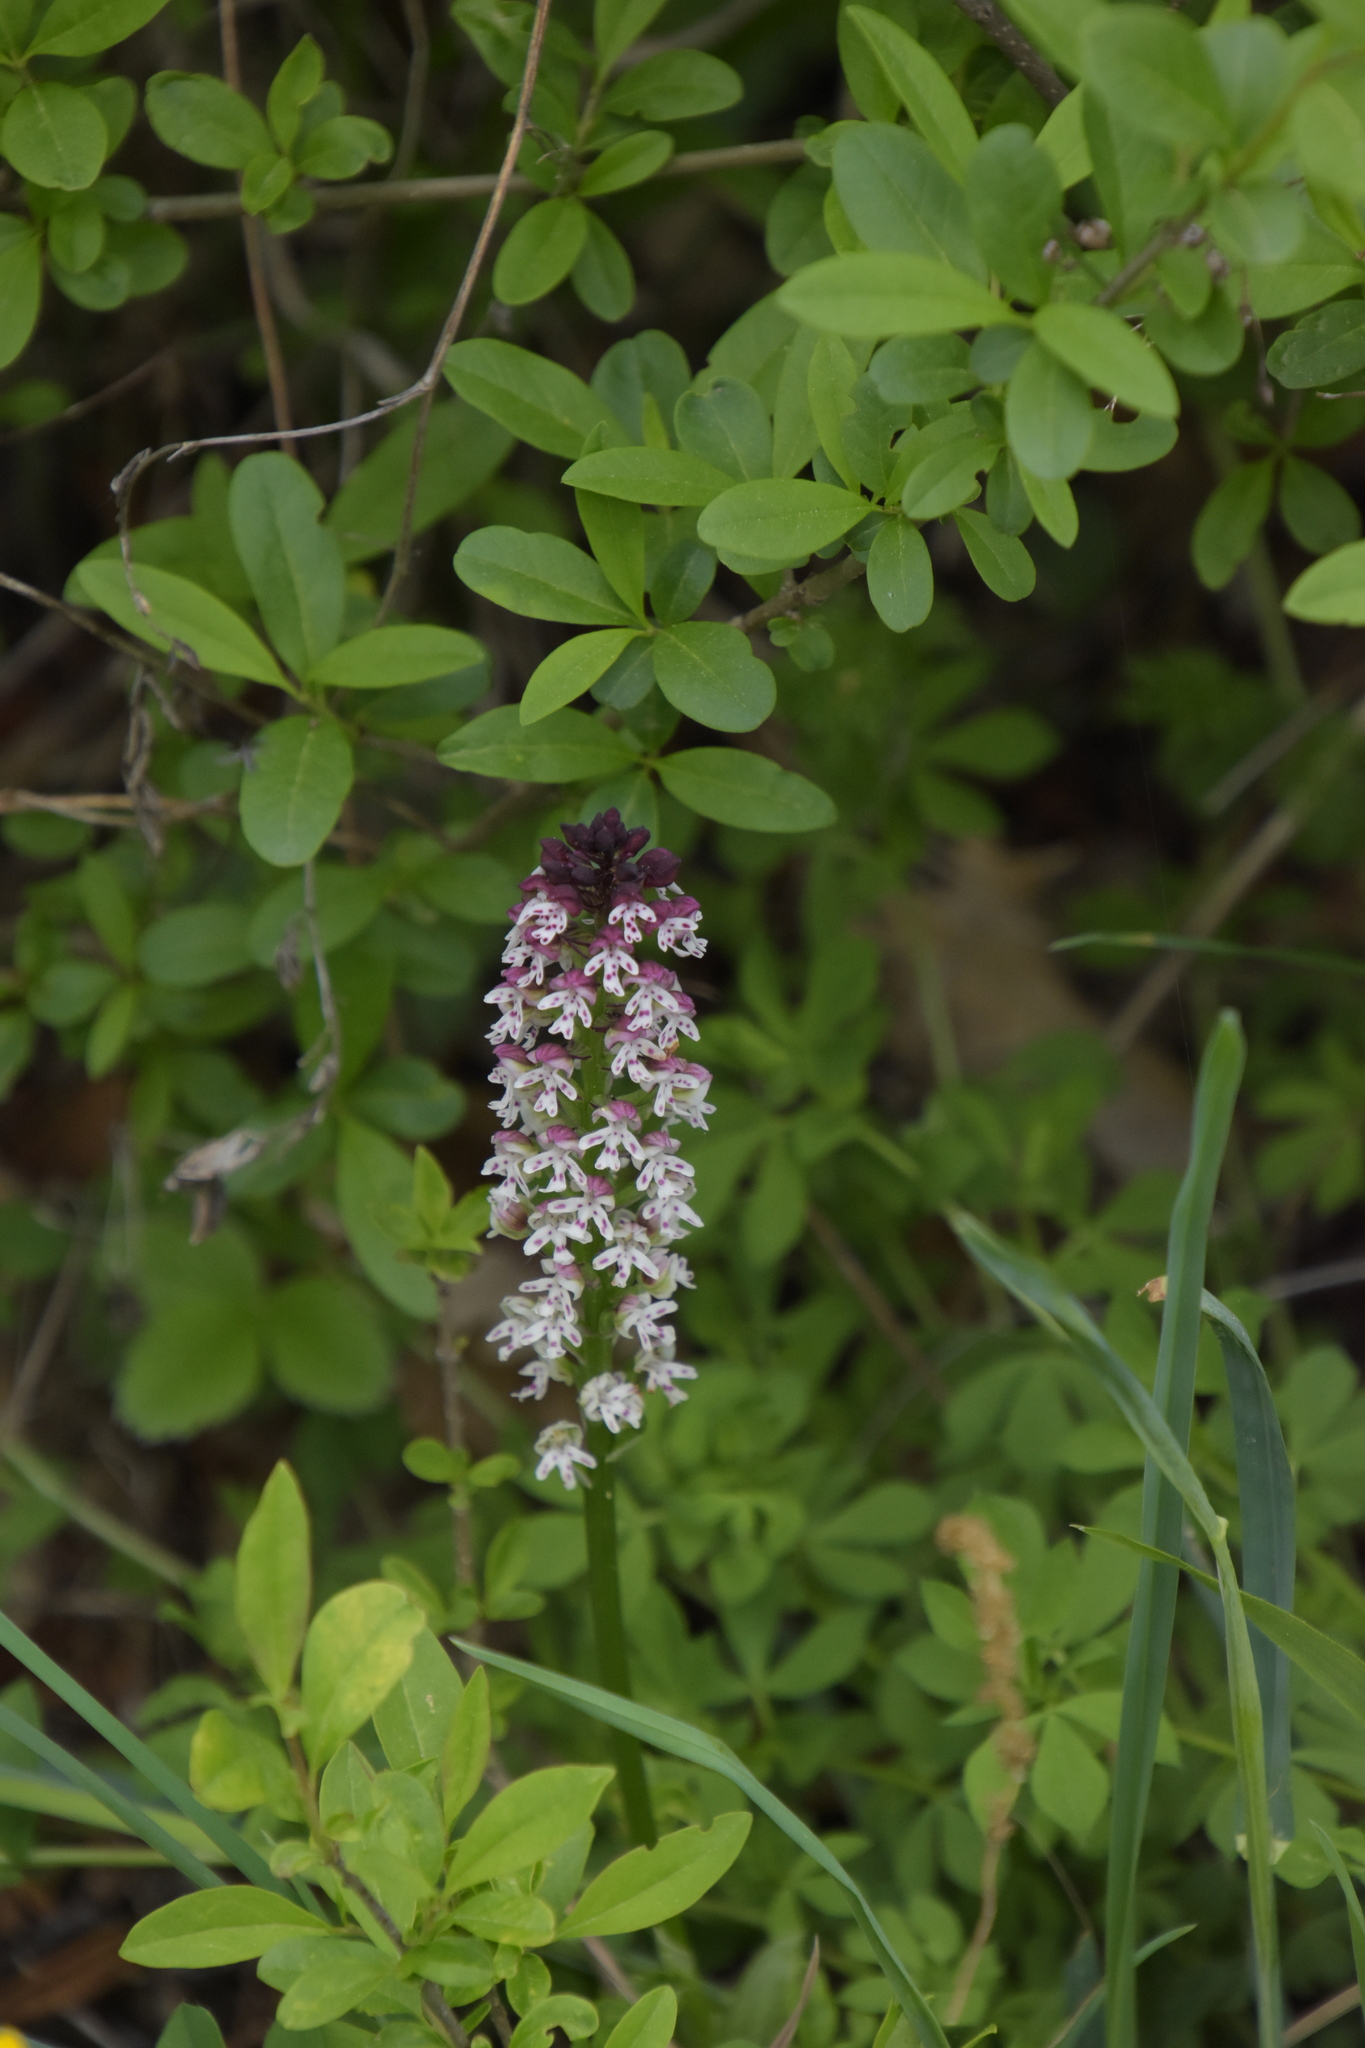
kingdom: Plantae
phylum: Tracheophyta
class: Liliopsida
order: Asparagales
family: Orchidaceae
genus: Neotinea
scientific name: Neotinea ustulata
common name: Burnt orchid
